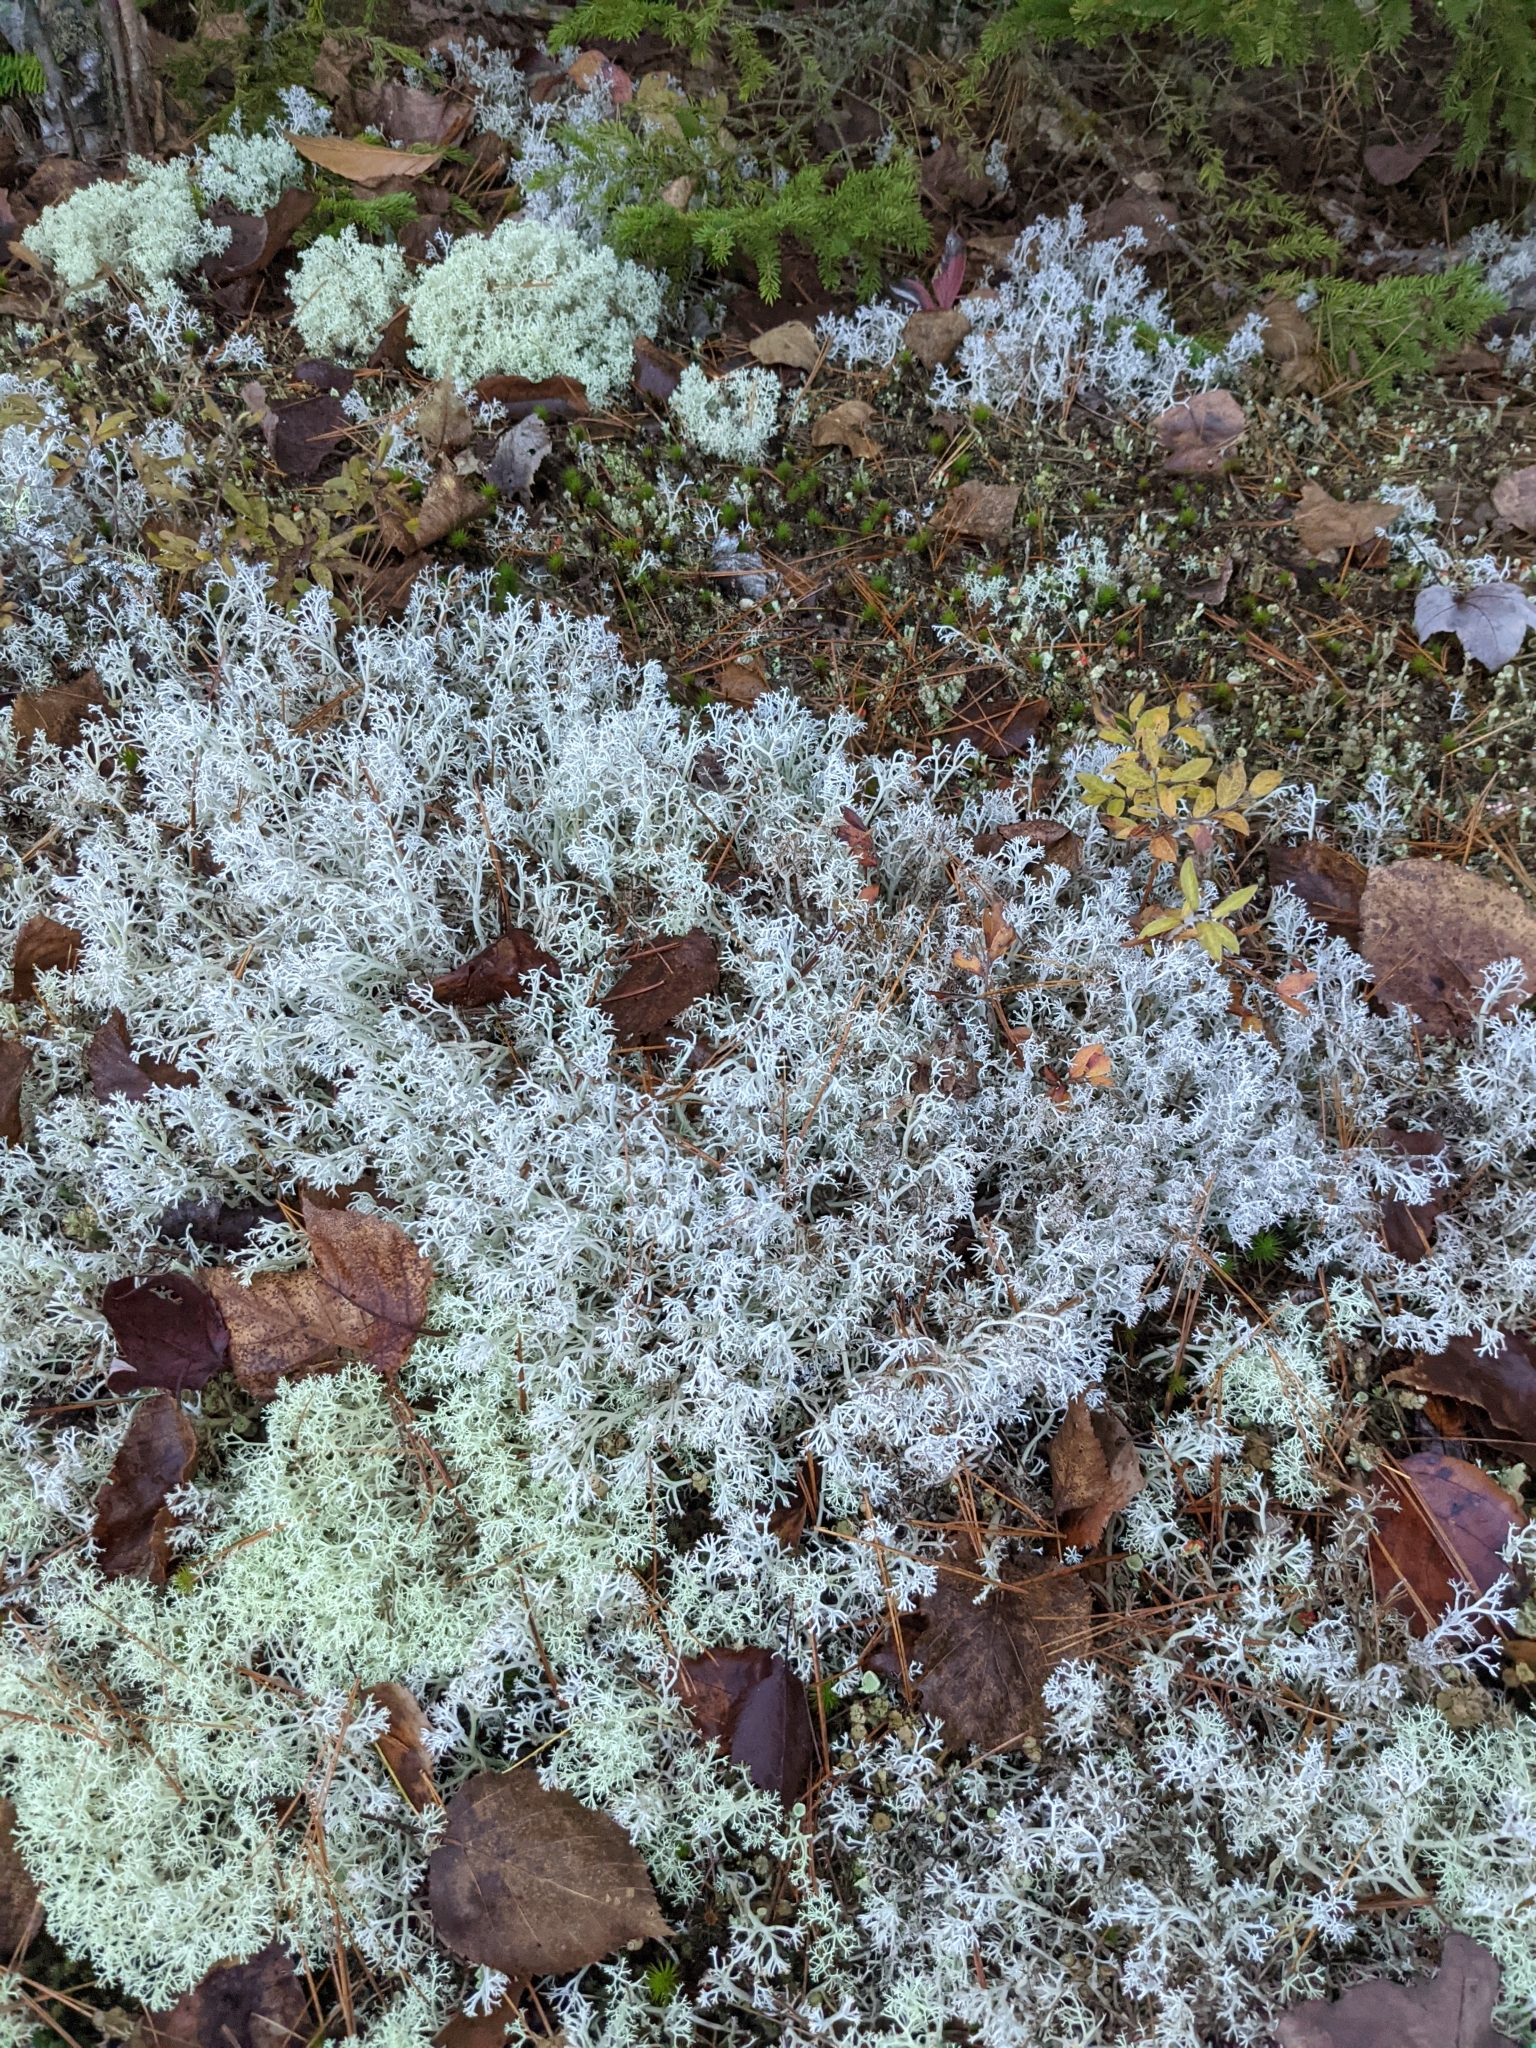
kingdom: Fungi
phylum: Ascomycota
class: Lecanoromycetes
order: Lecanorales
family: Cladoniaceae
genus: Cladonia
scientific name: Cladonia rangiferina
